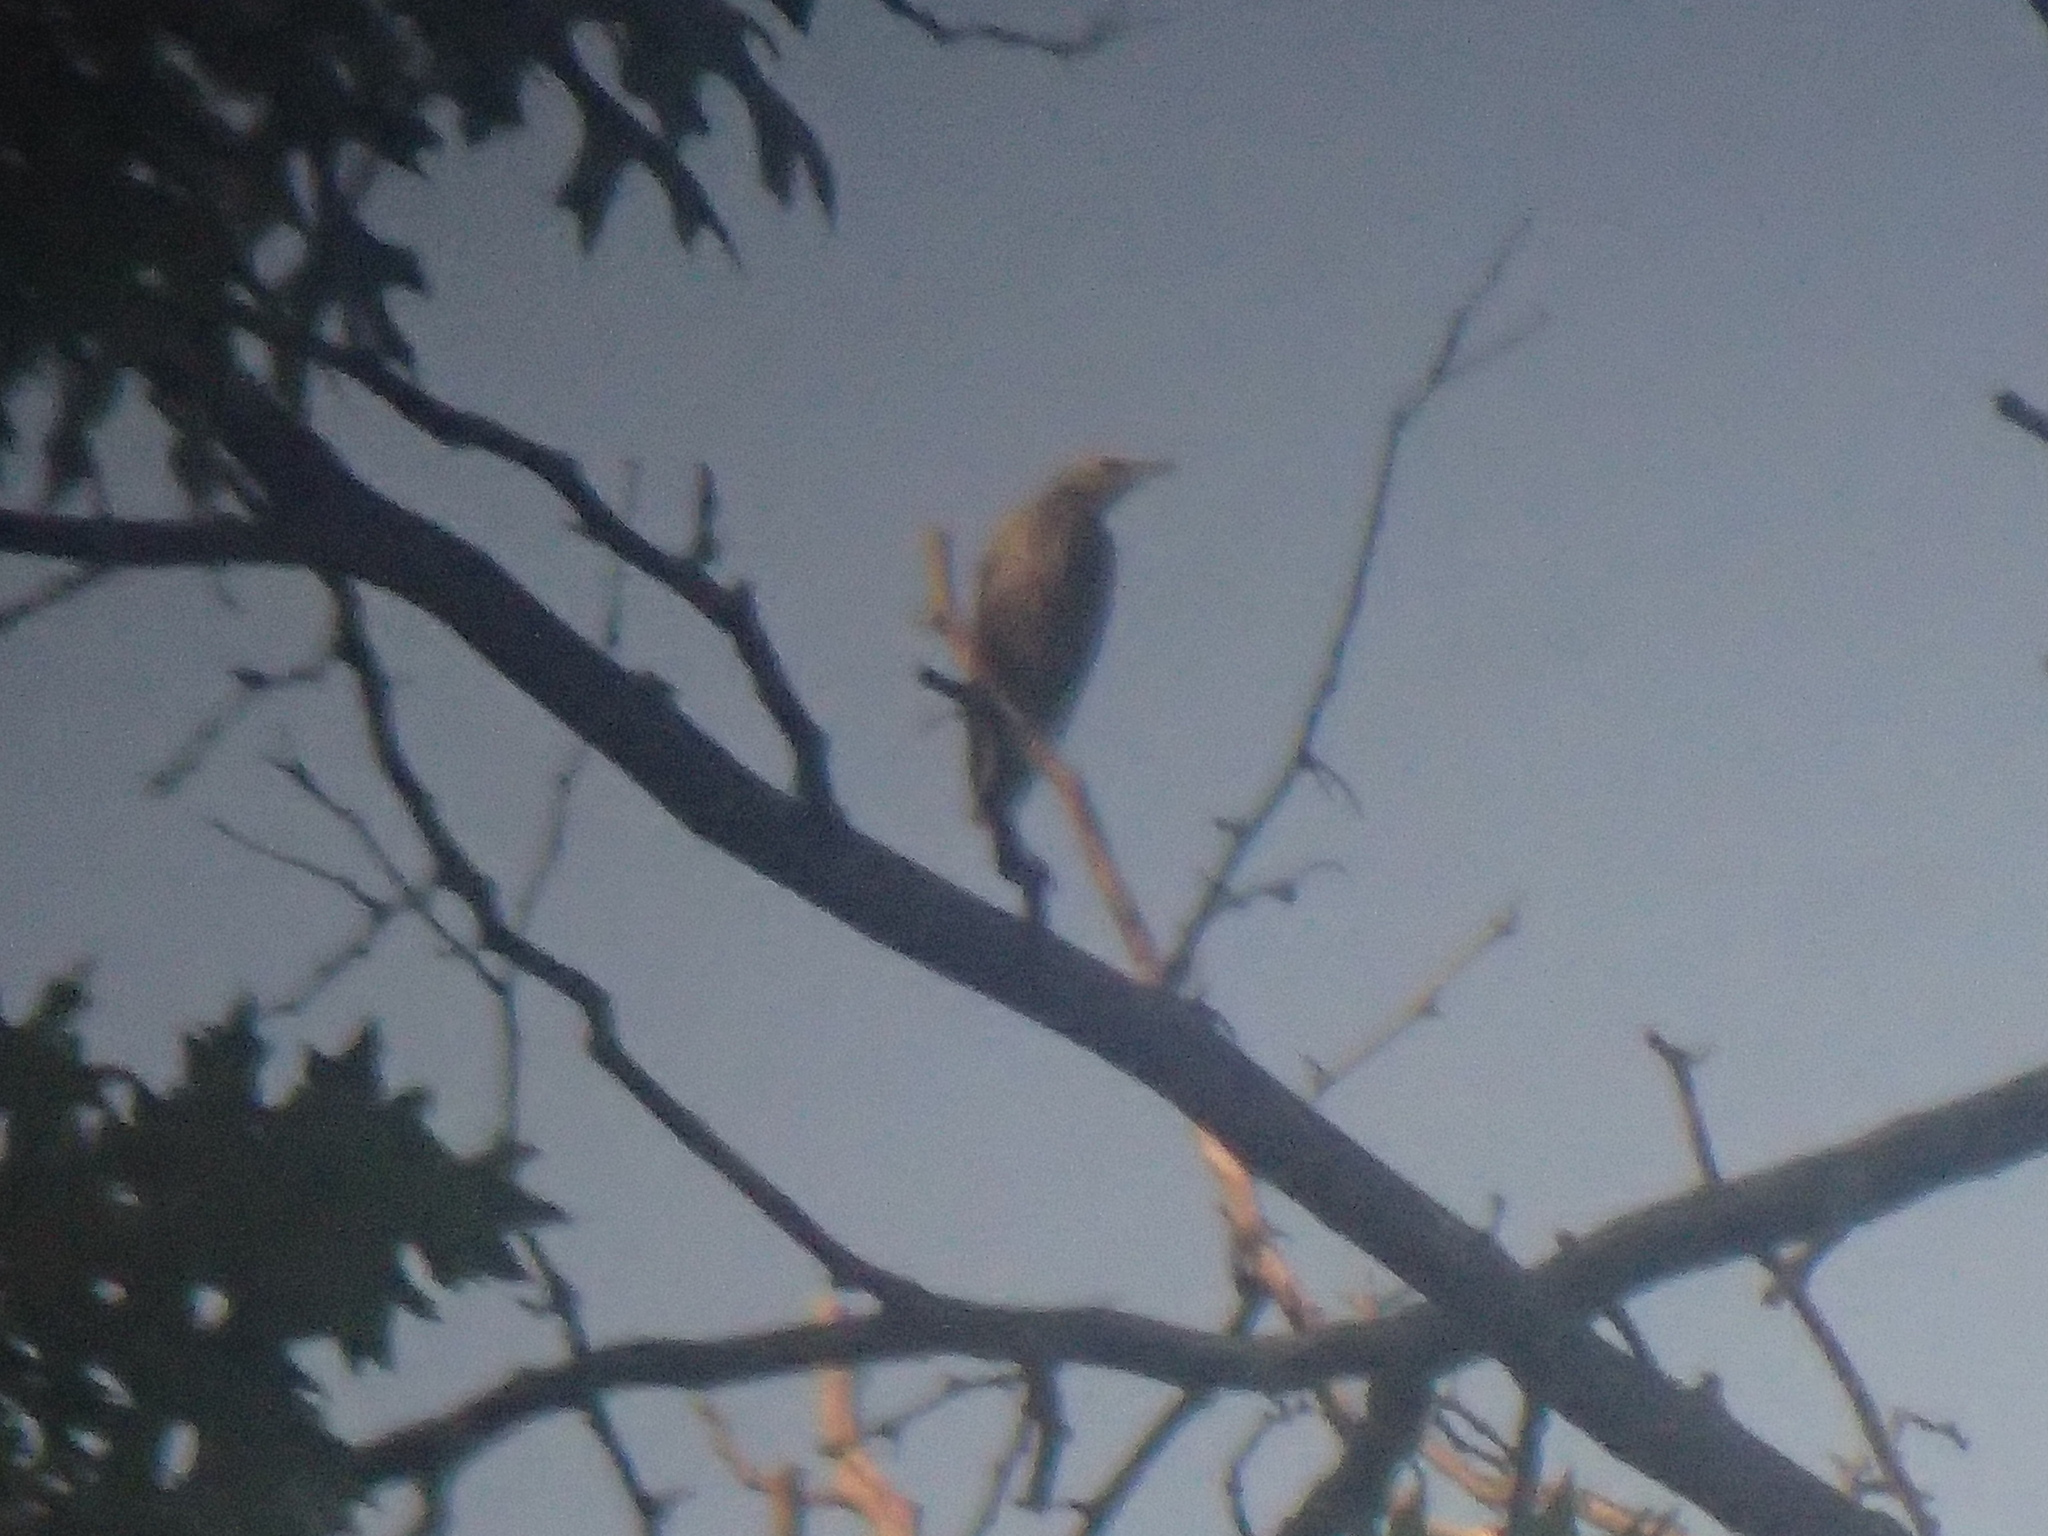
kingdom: Animalia
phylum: Chordata
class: Aves
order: Passeriformes
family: Sturnidae
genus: Sturnus
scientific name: Sturnus vulgaris
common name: Common starling
